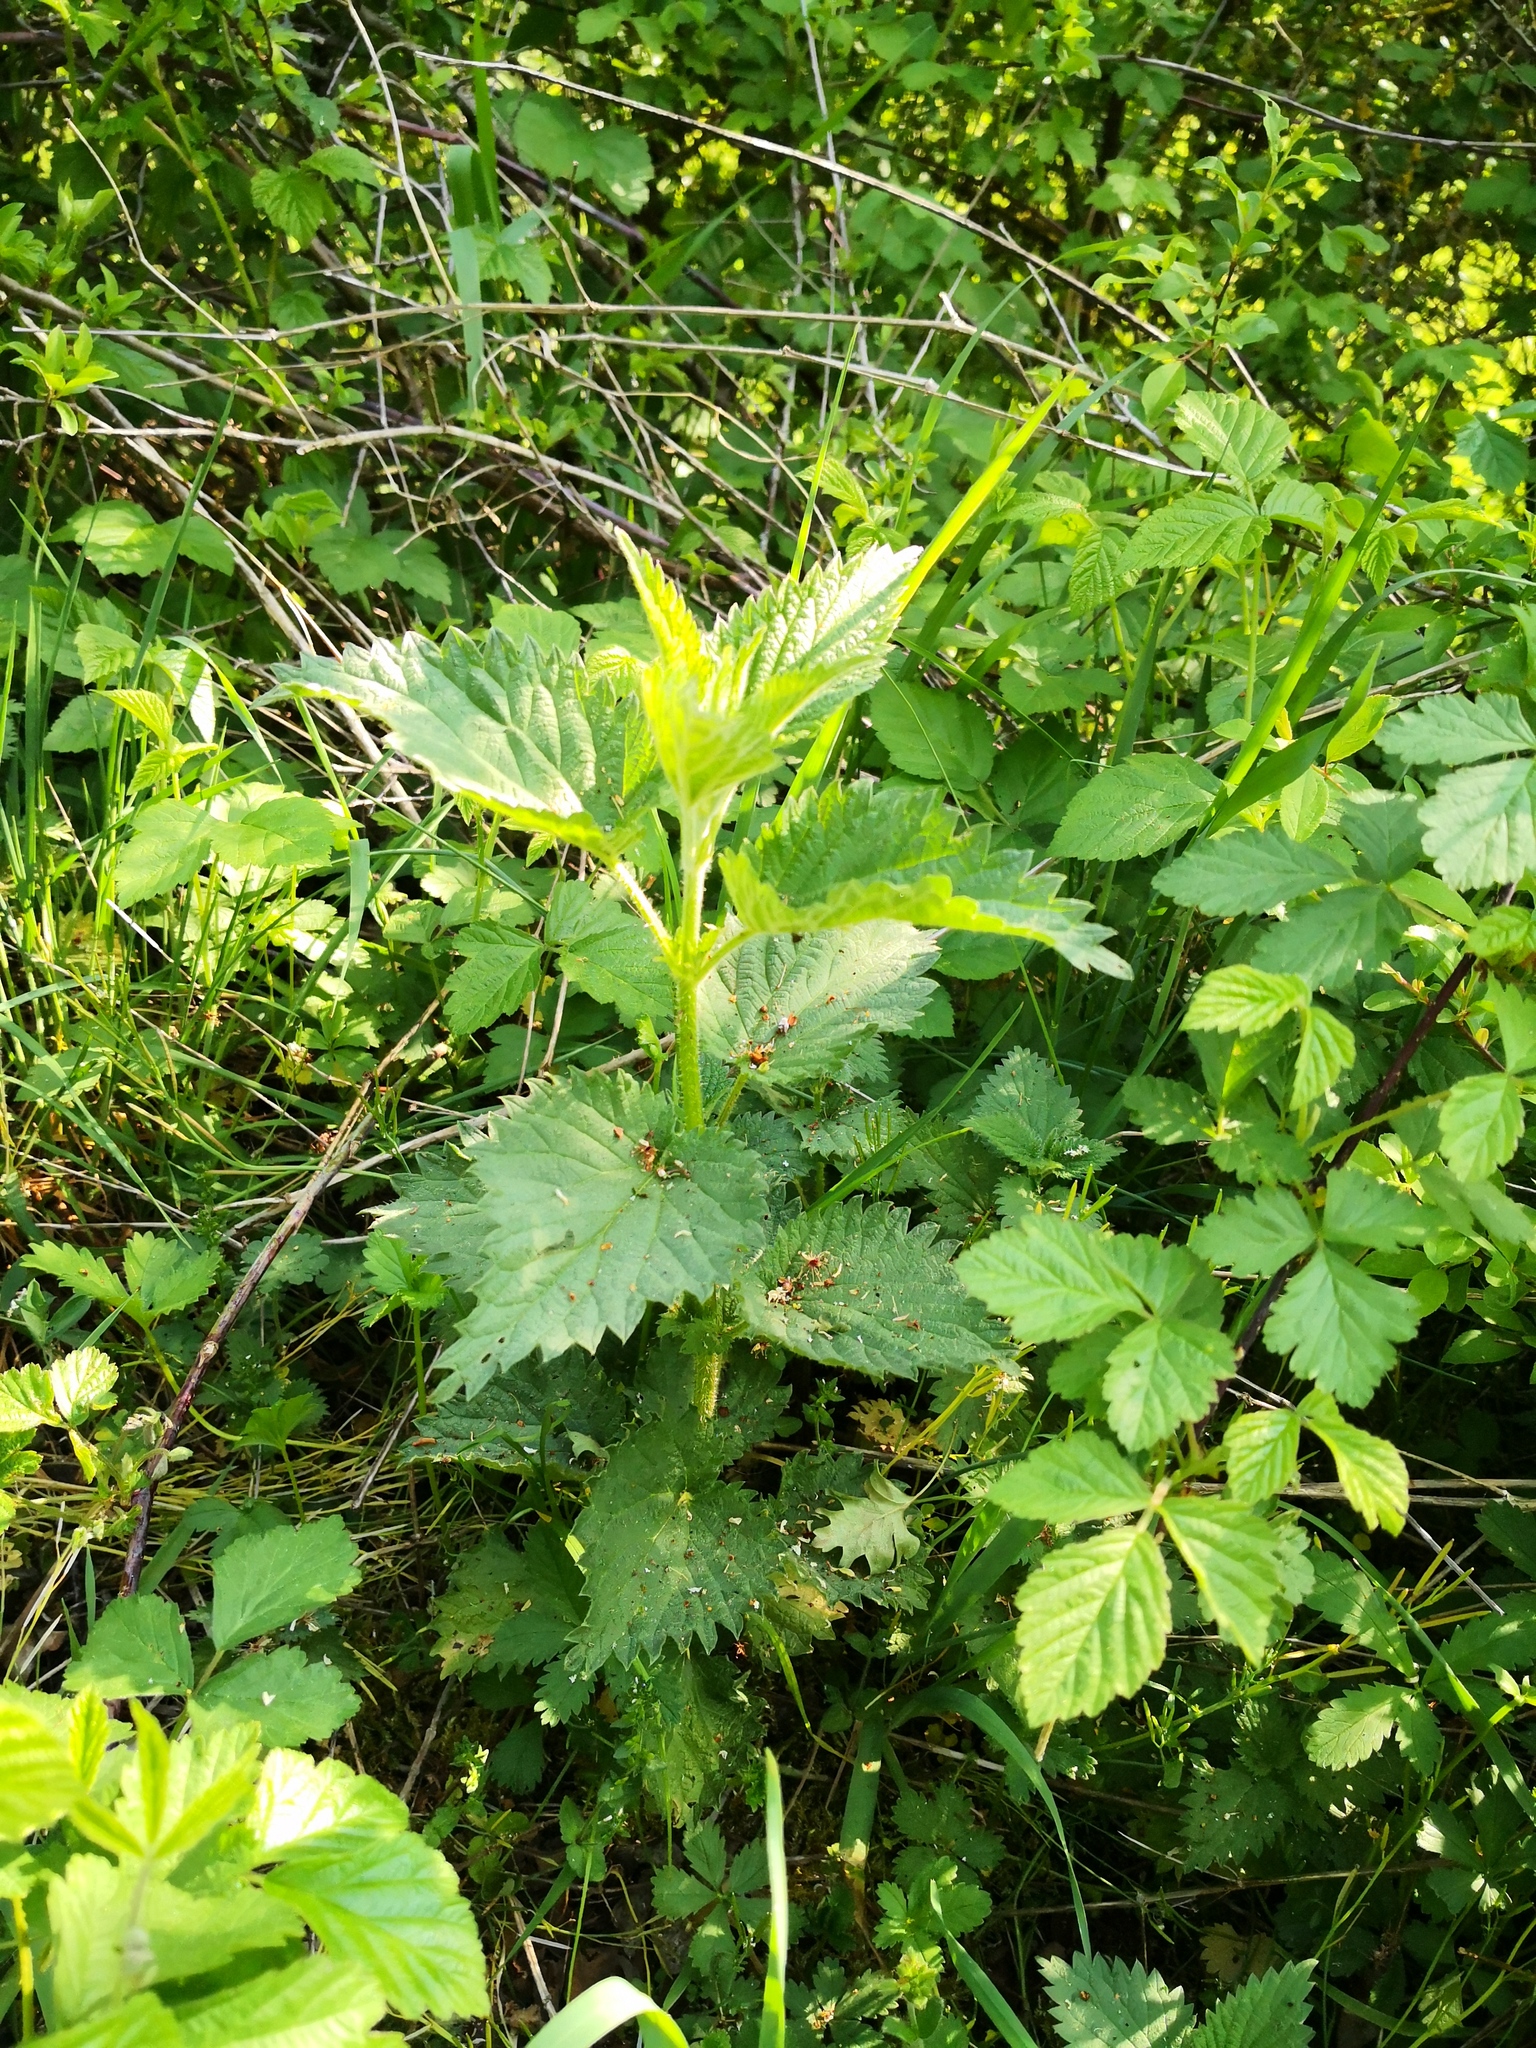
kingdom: Plantae
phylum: Tracheophyta
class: Magnoliopsida
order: Rosales
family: Urticaceae
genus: Urtica
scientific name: Urtica dioica
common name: Common nettle
